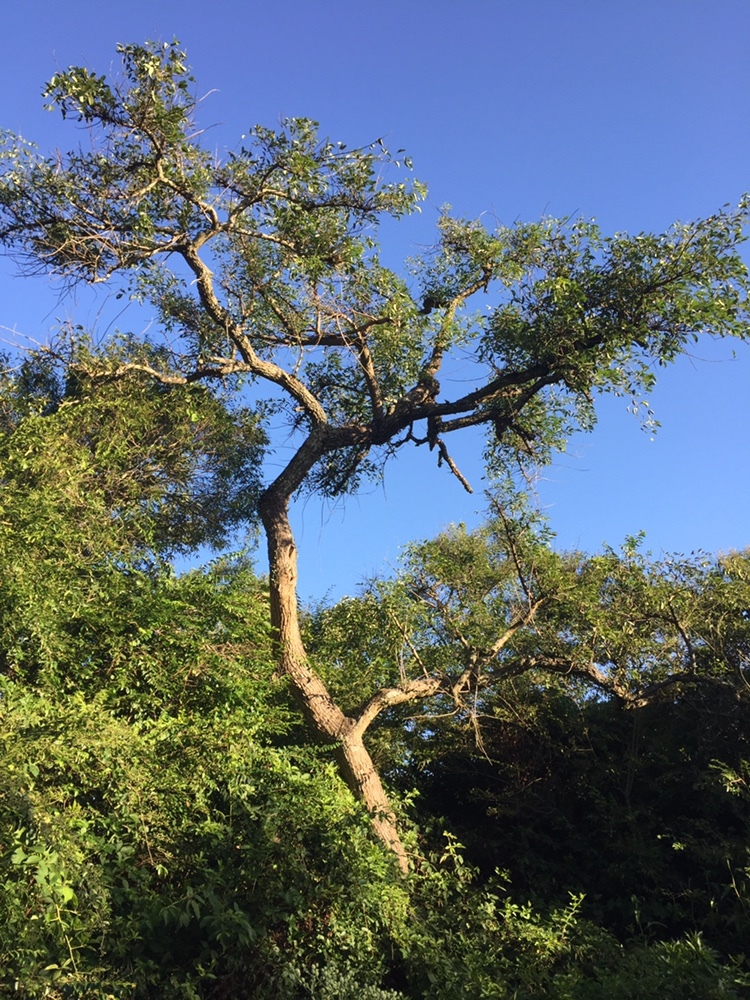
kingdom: Plantae
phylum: Tracheophyta
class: Magnoliopsida
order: Fabales
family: Fabaceae
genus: Erythrina
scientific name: Erythrina crista-galli
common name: Cockspur coral tree
